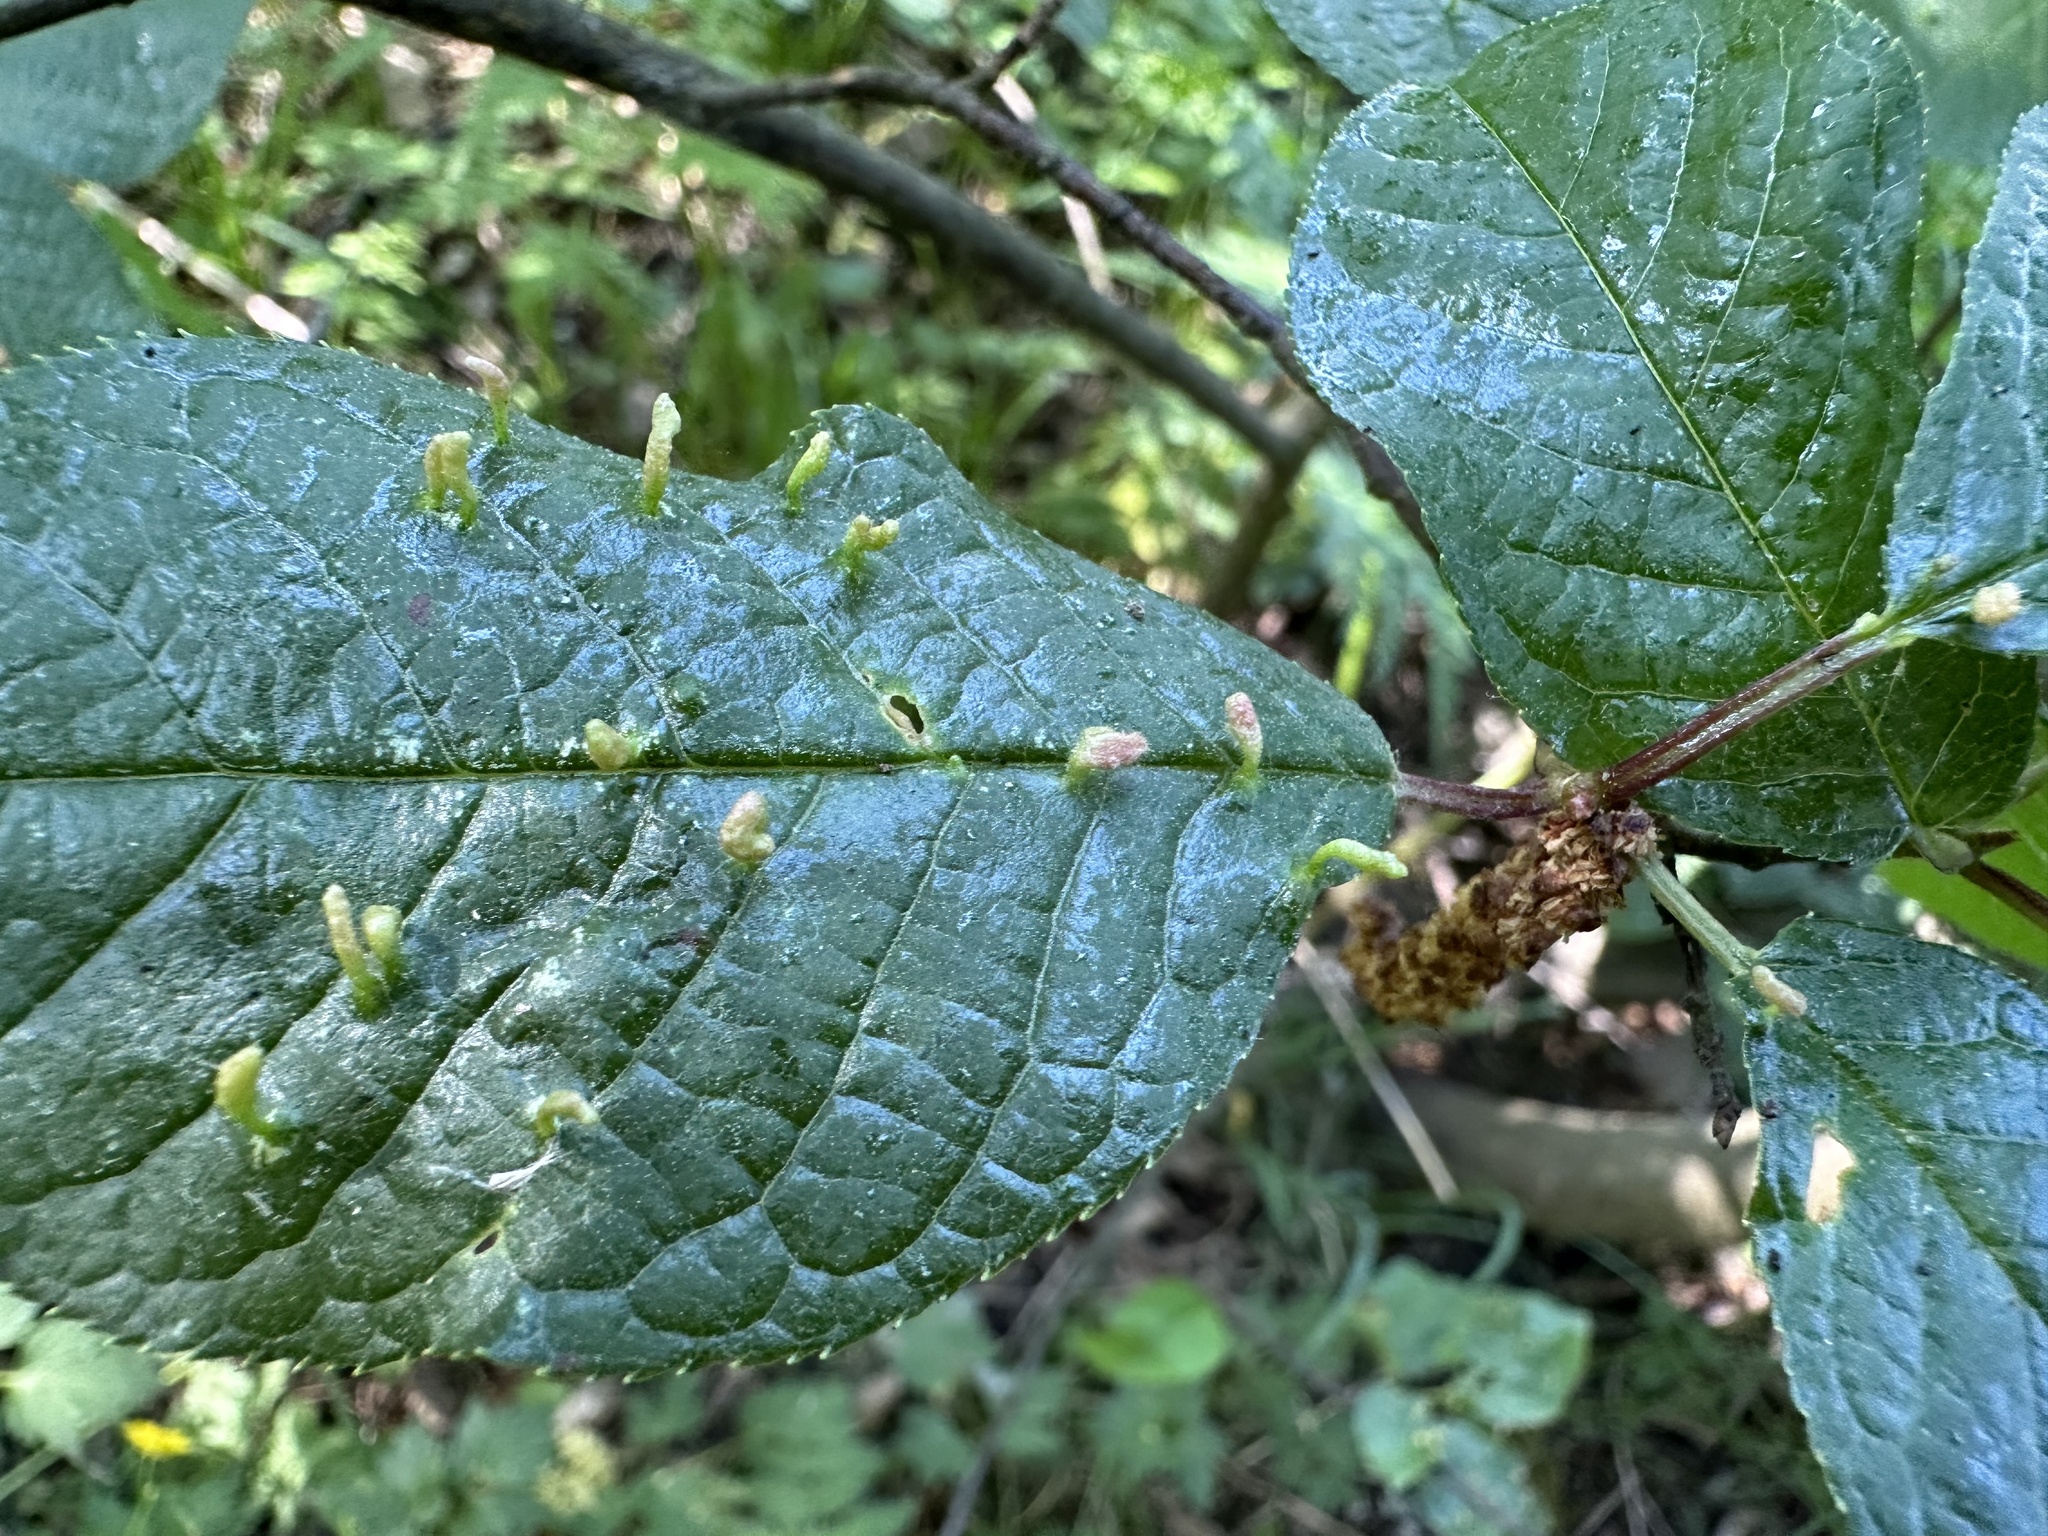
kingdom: Animalia
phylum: Arthropoda
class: Arachnida
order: Trombidiformes
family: Eriophyidae
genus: Phyllocoptes
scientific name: Phyllocoptes eupadi
